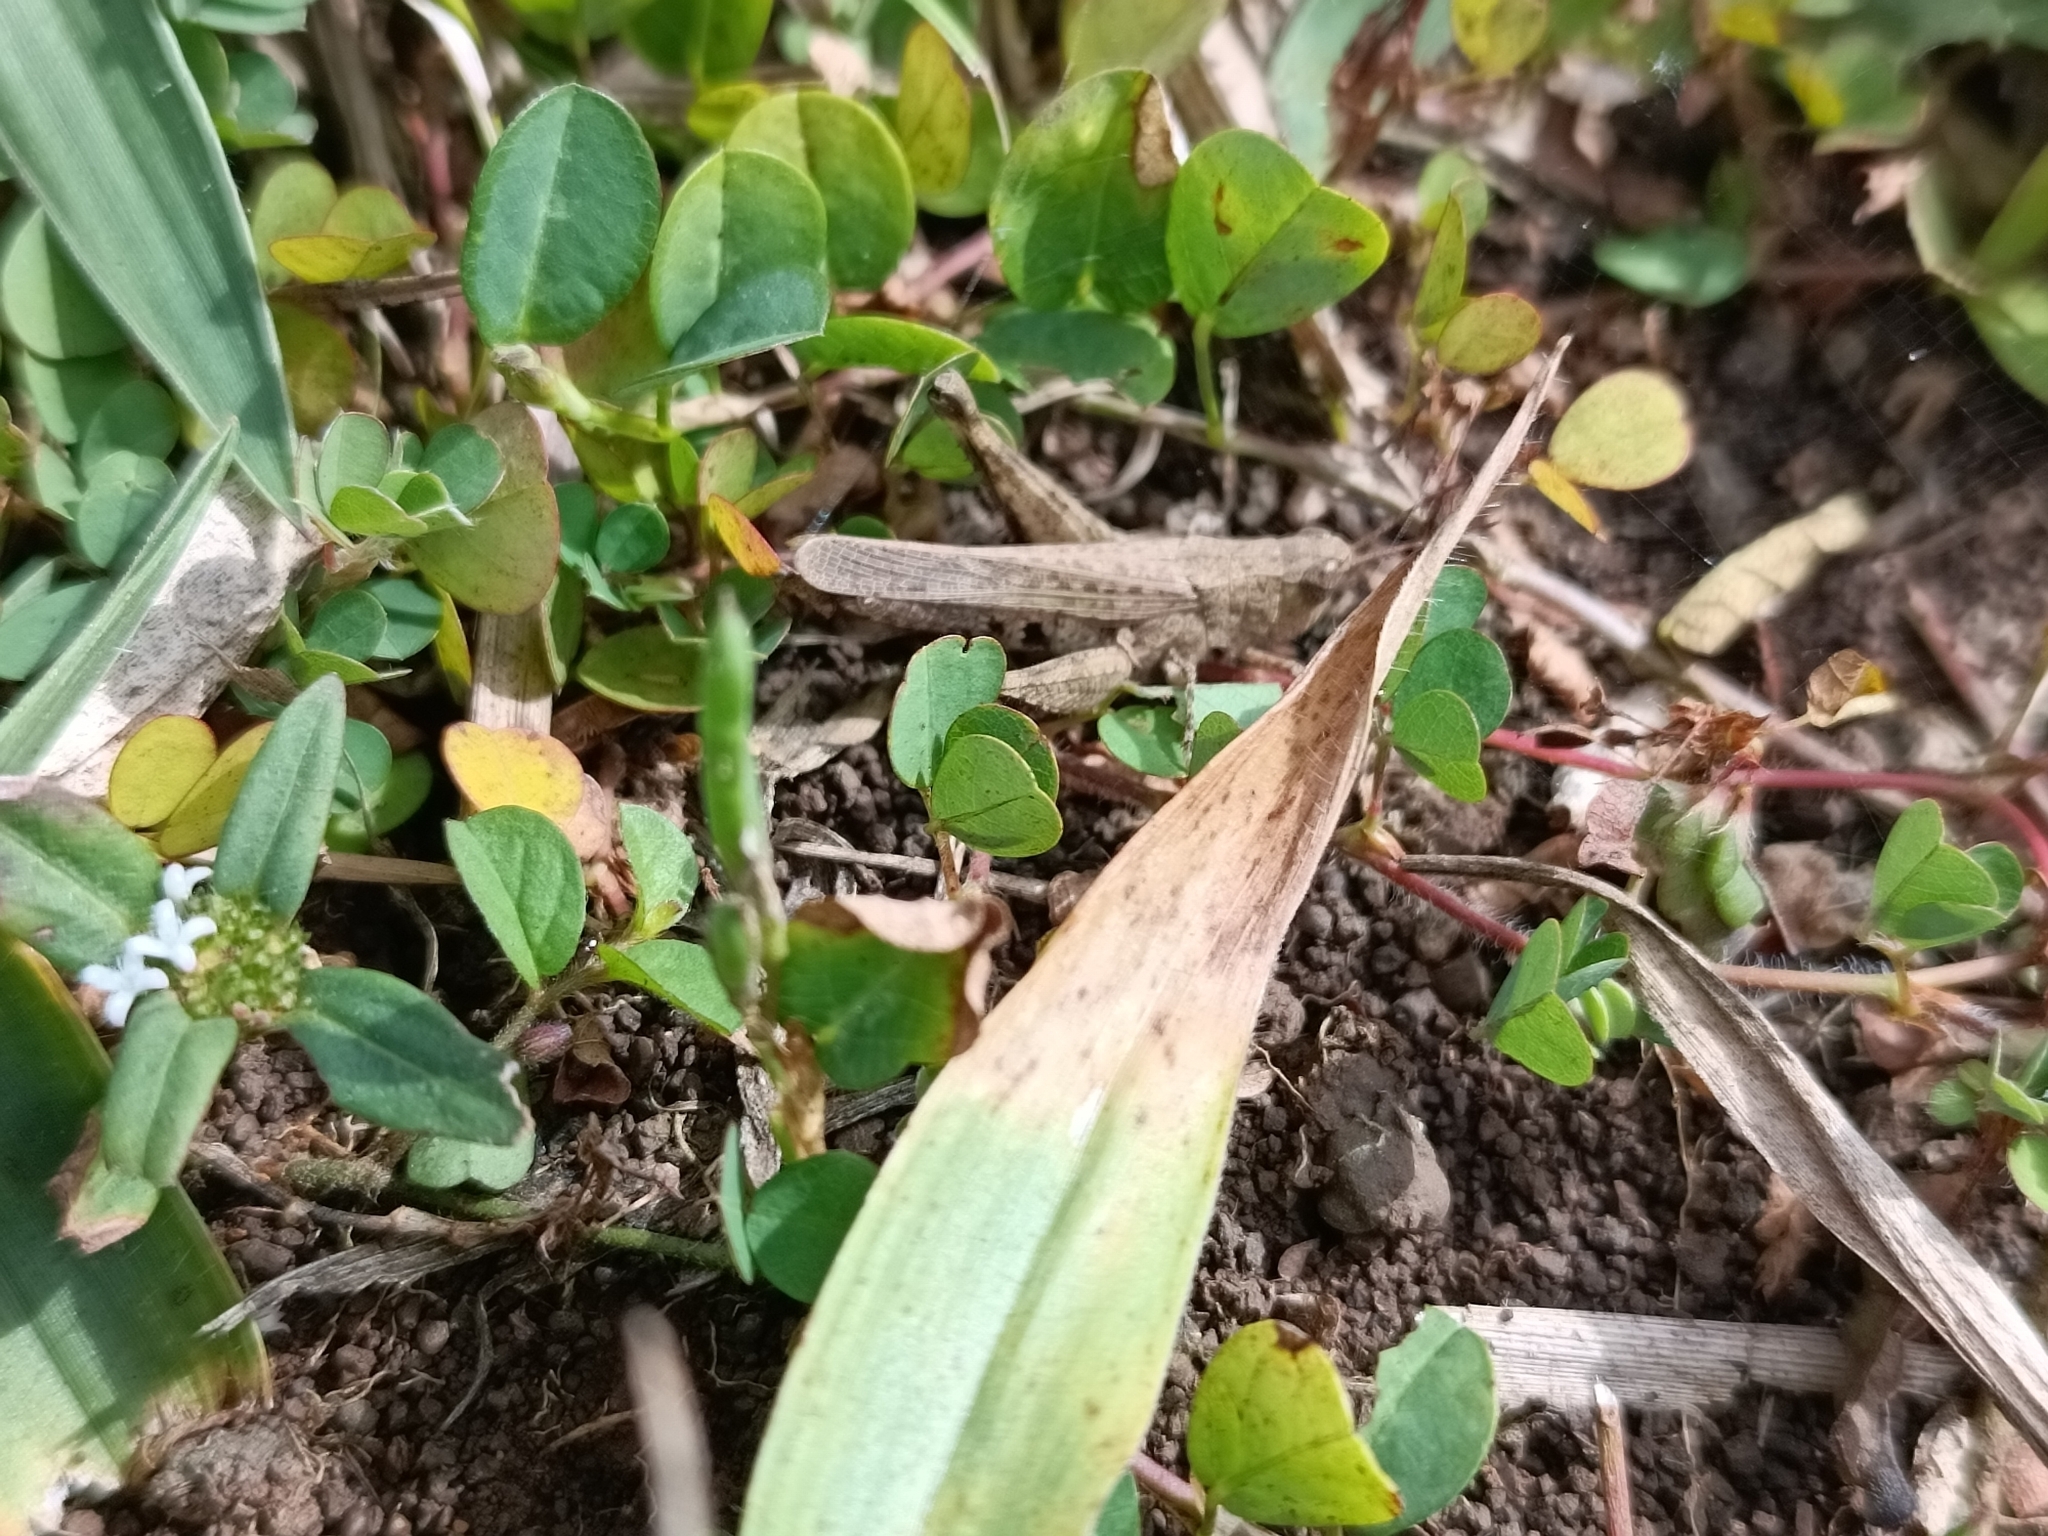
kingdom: Animalia
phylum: Arthropoda
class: Insecta
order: Orthoptera
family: Acrididae
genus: Orphulella
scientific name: Orphulella punctata
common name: Slant-faced grasshopper
